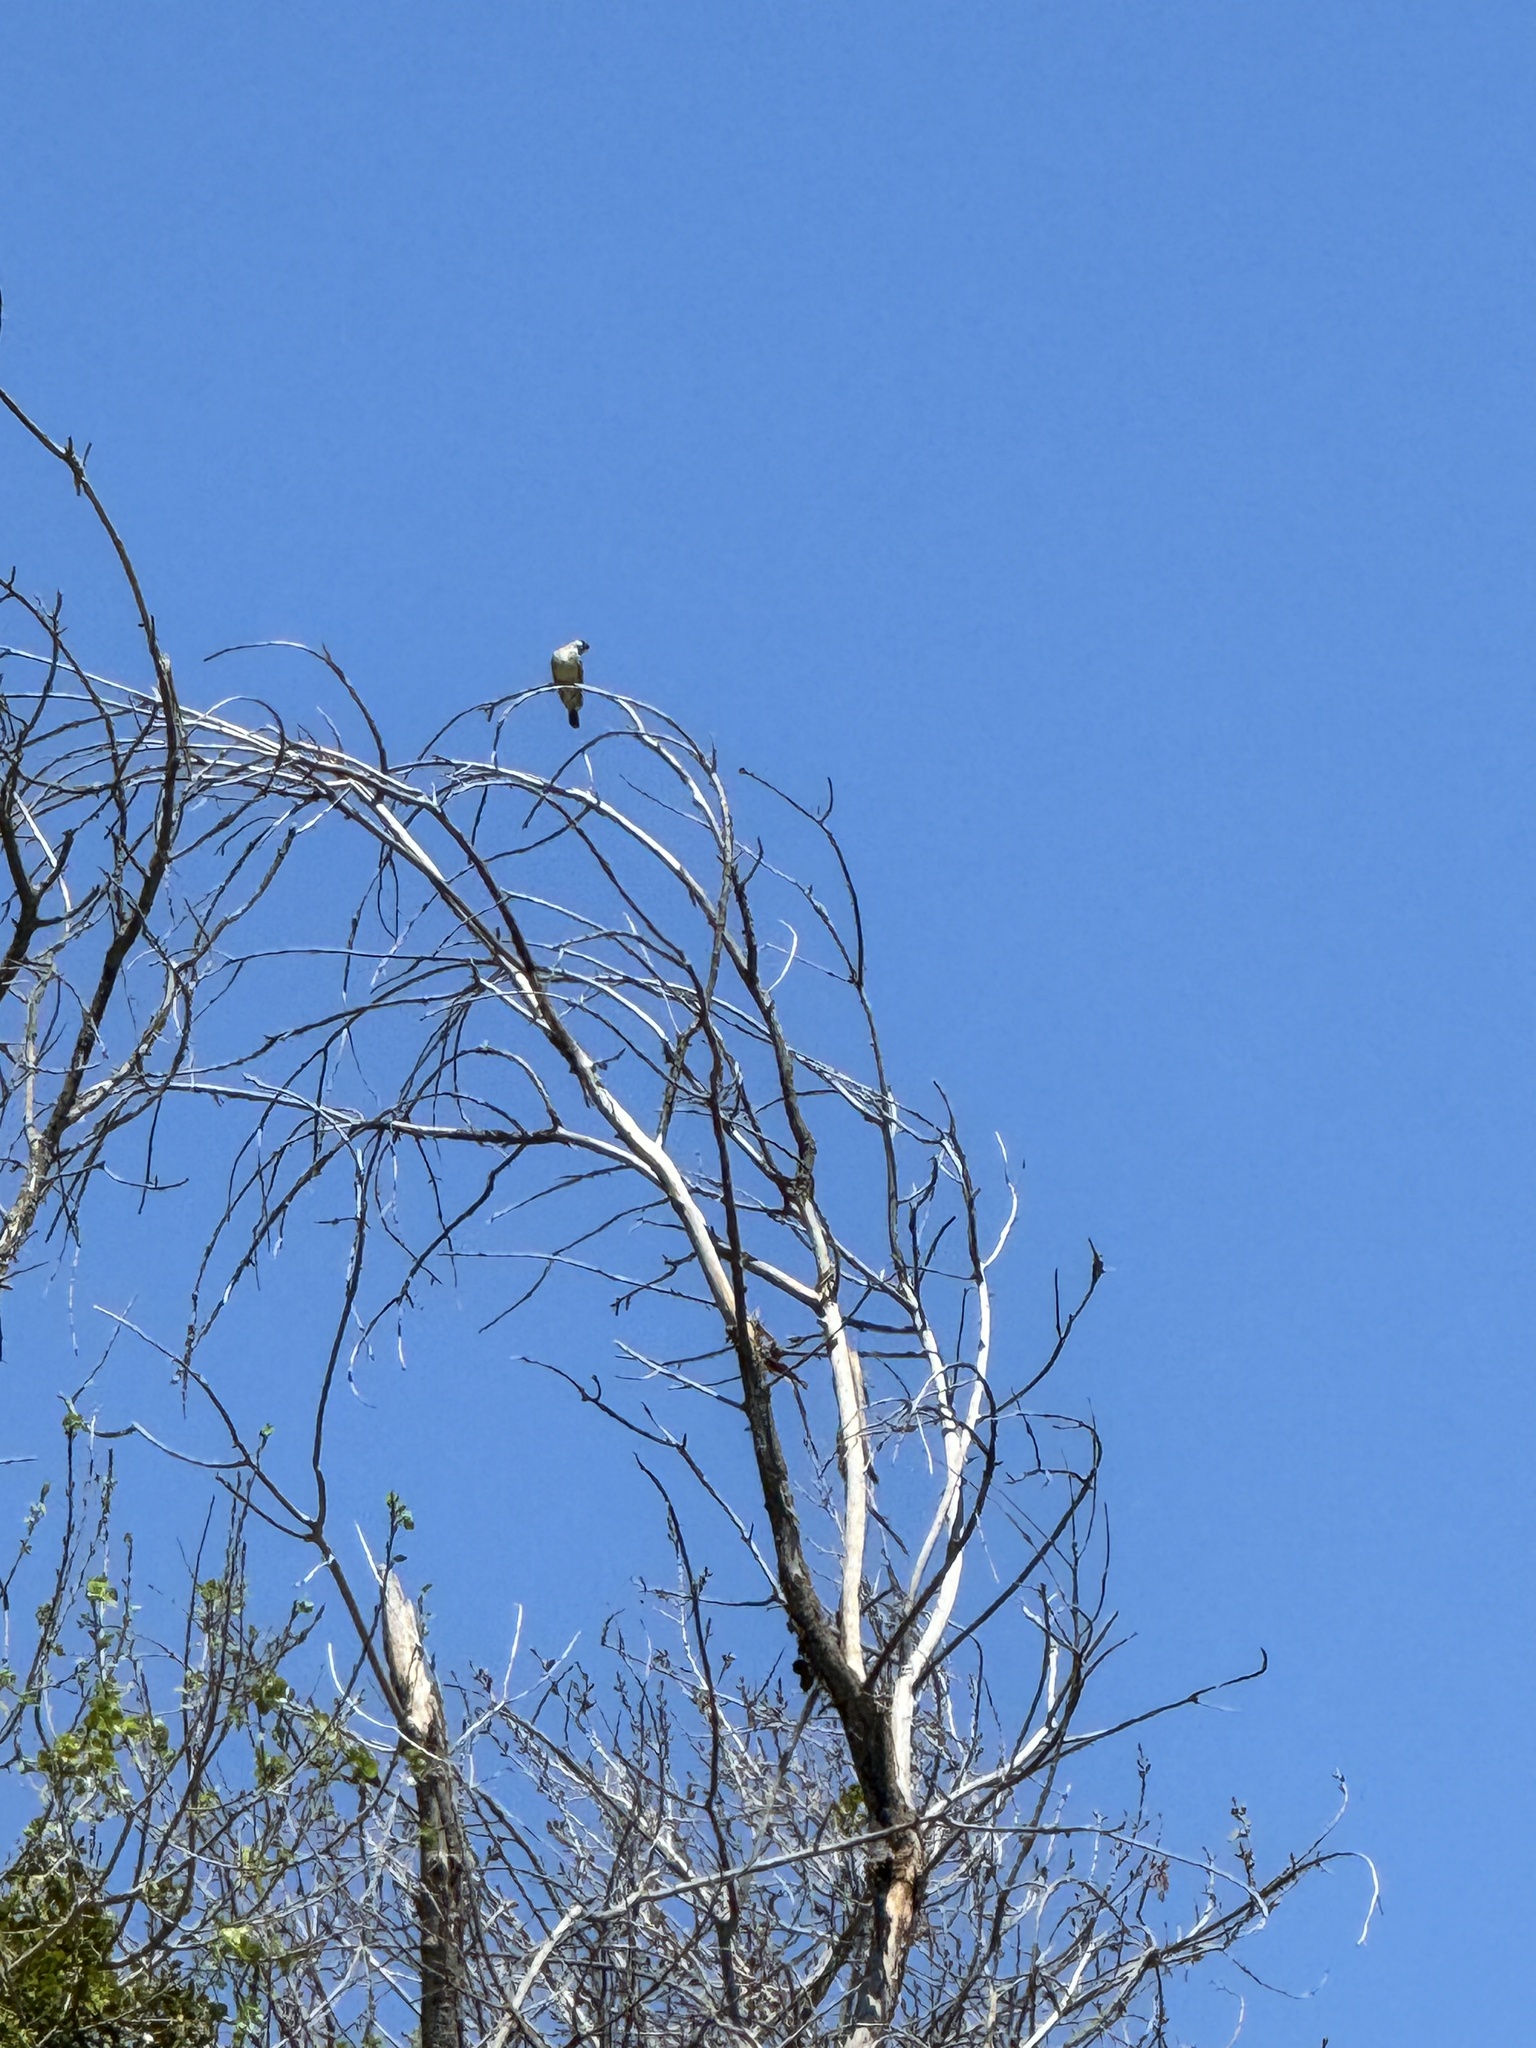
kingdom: Animalia
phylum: Chordata
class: Aves
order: Passeriformes
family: Tyrannidae
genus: Tyrannus
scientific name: Tyrannus vociferans
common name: Cassin's kingbird
